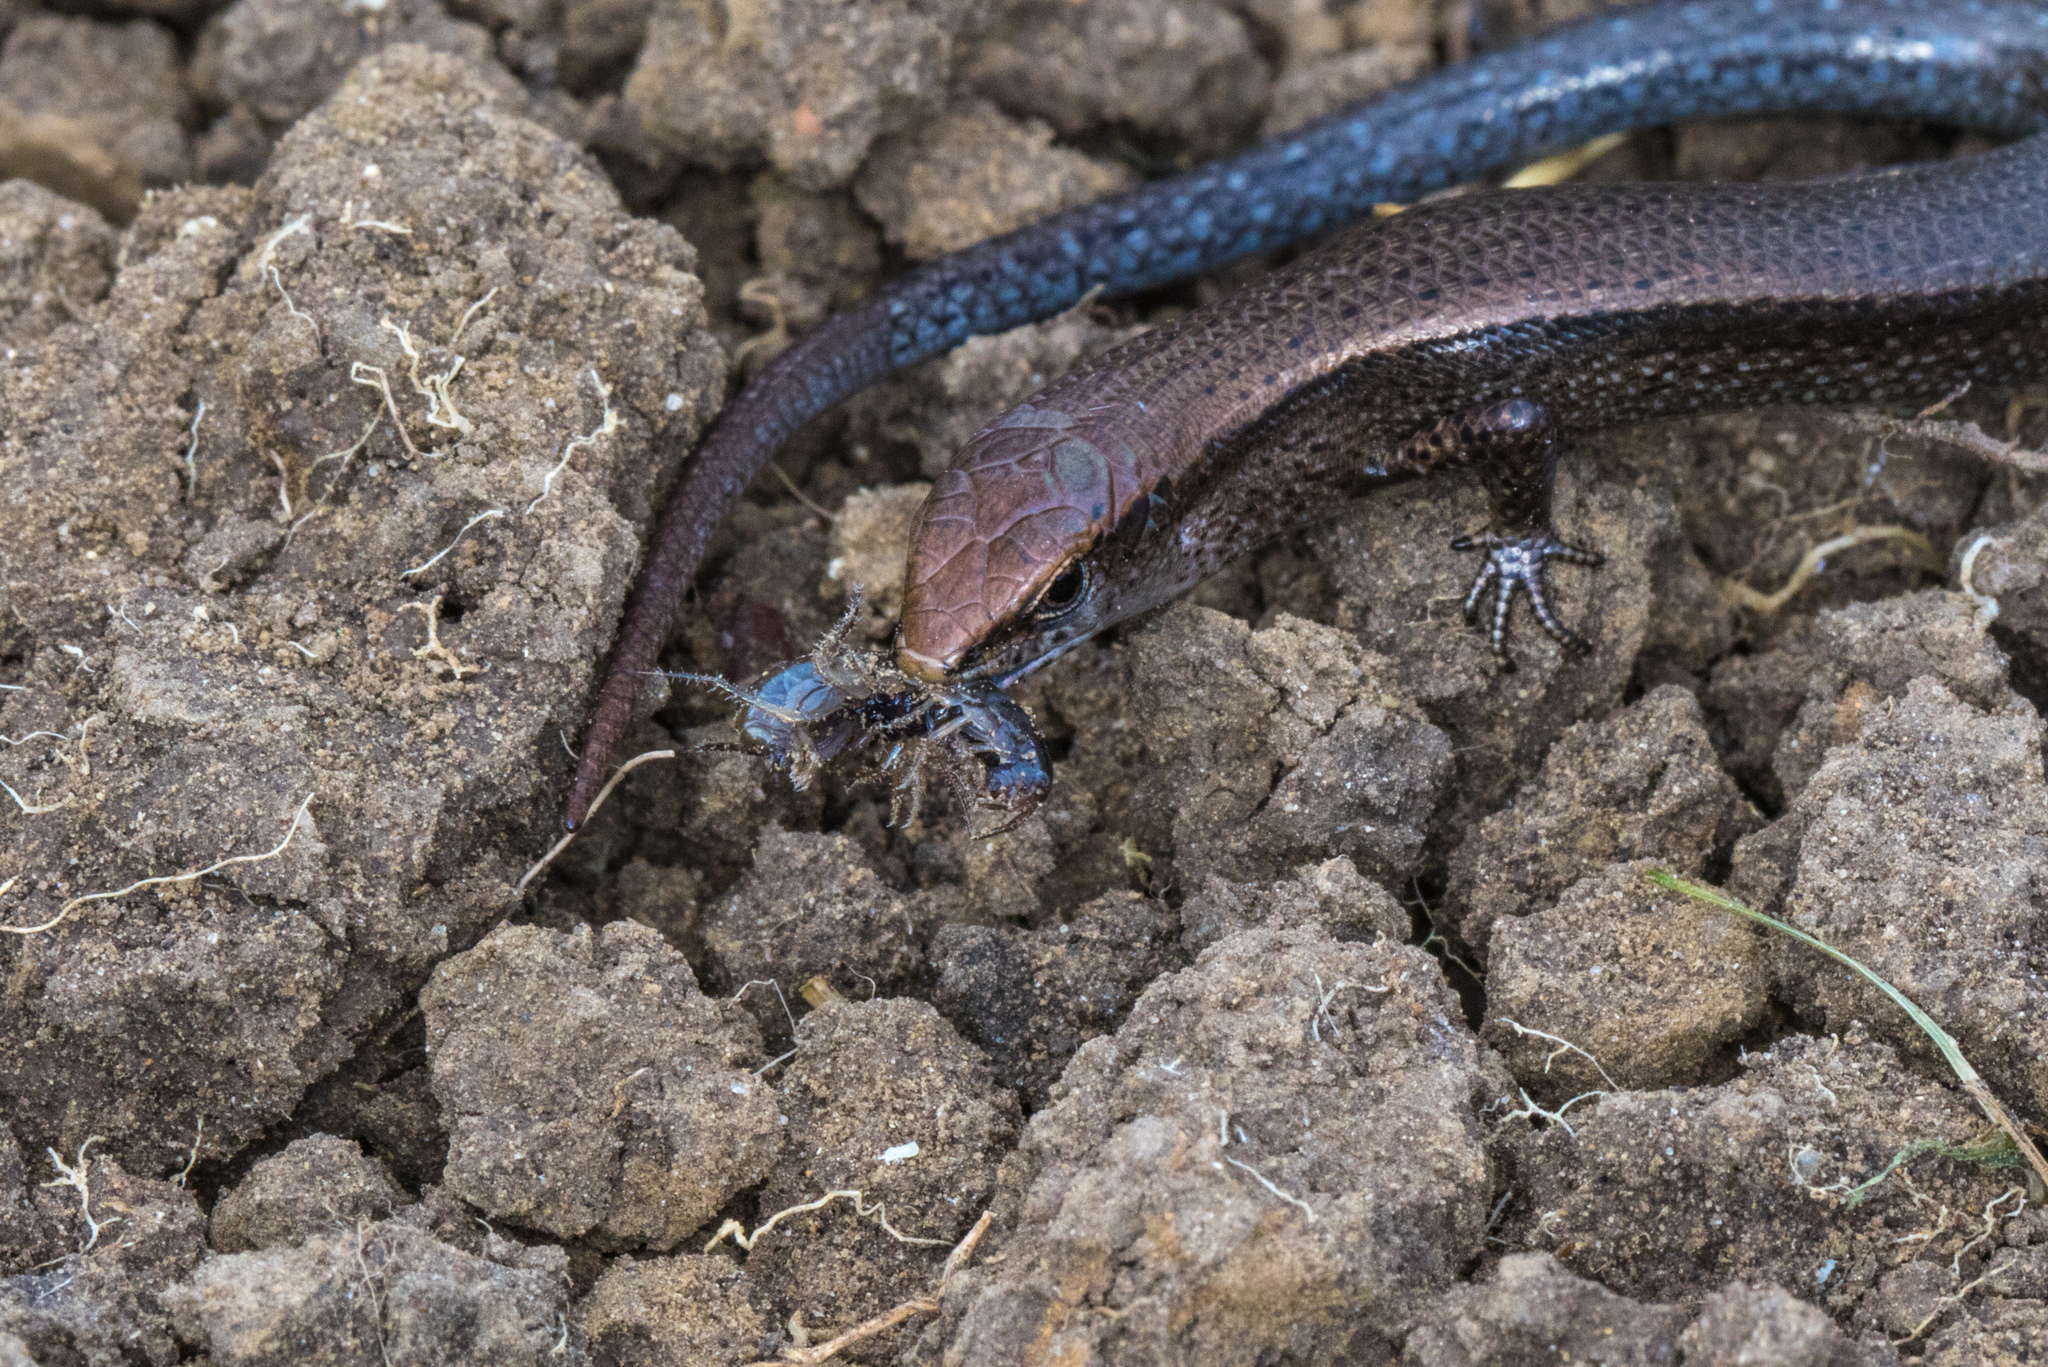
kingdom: Animalia
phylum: Chordata
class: Squamata
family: Scincidae
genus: Lampropholis
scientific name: Lampropholis delicata
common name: Plague skink
